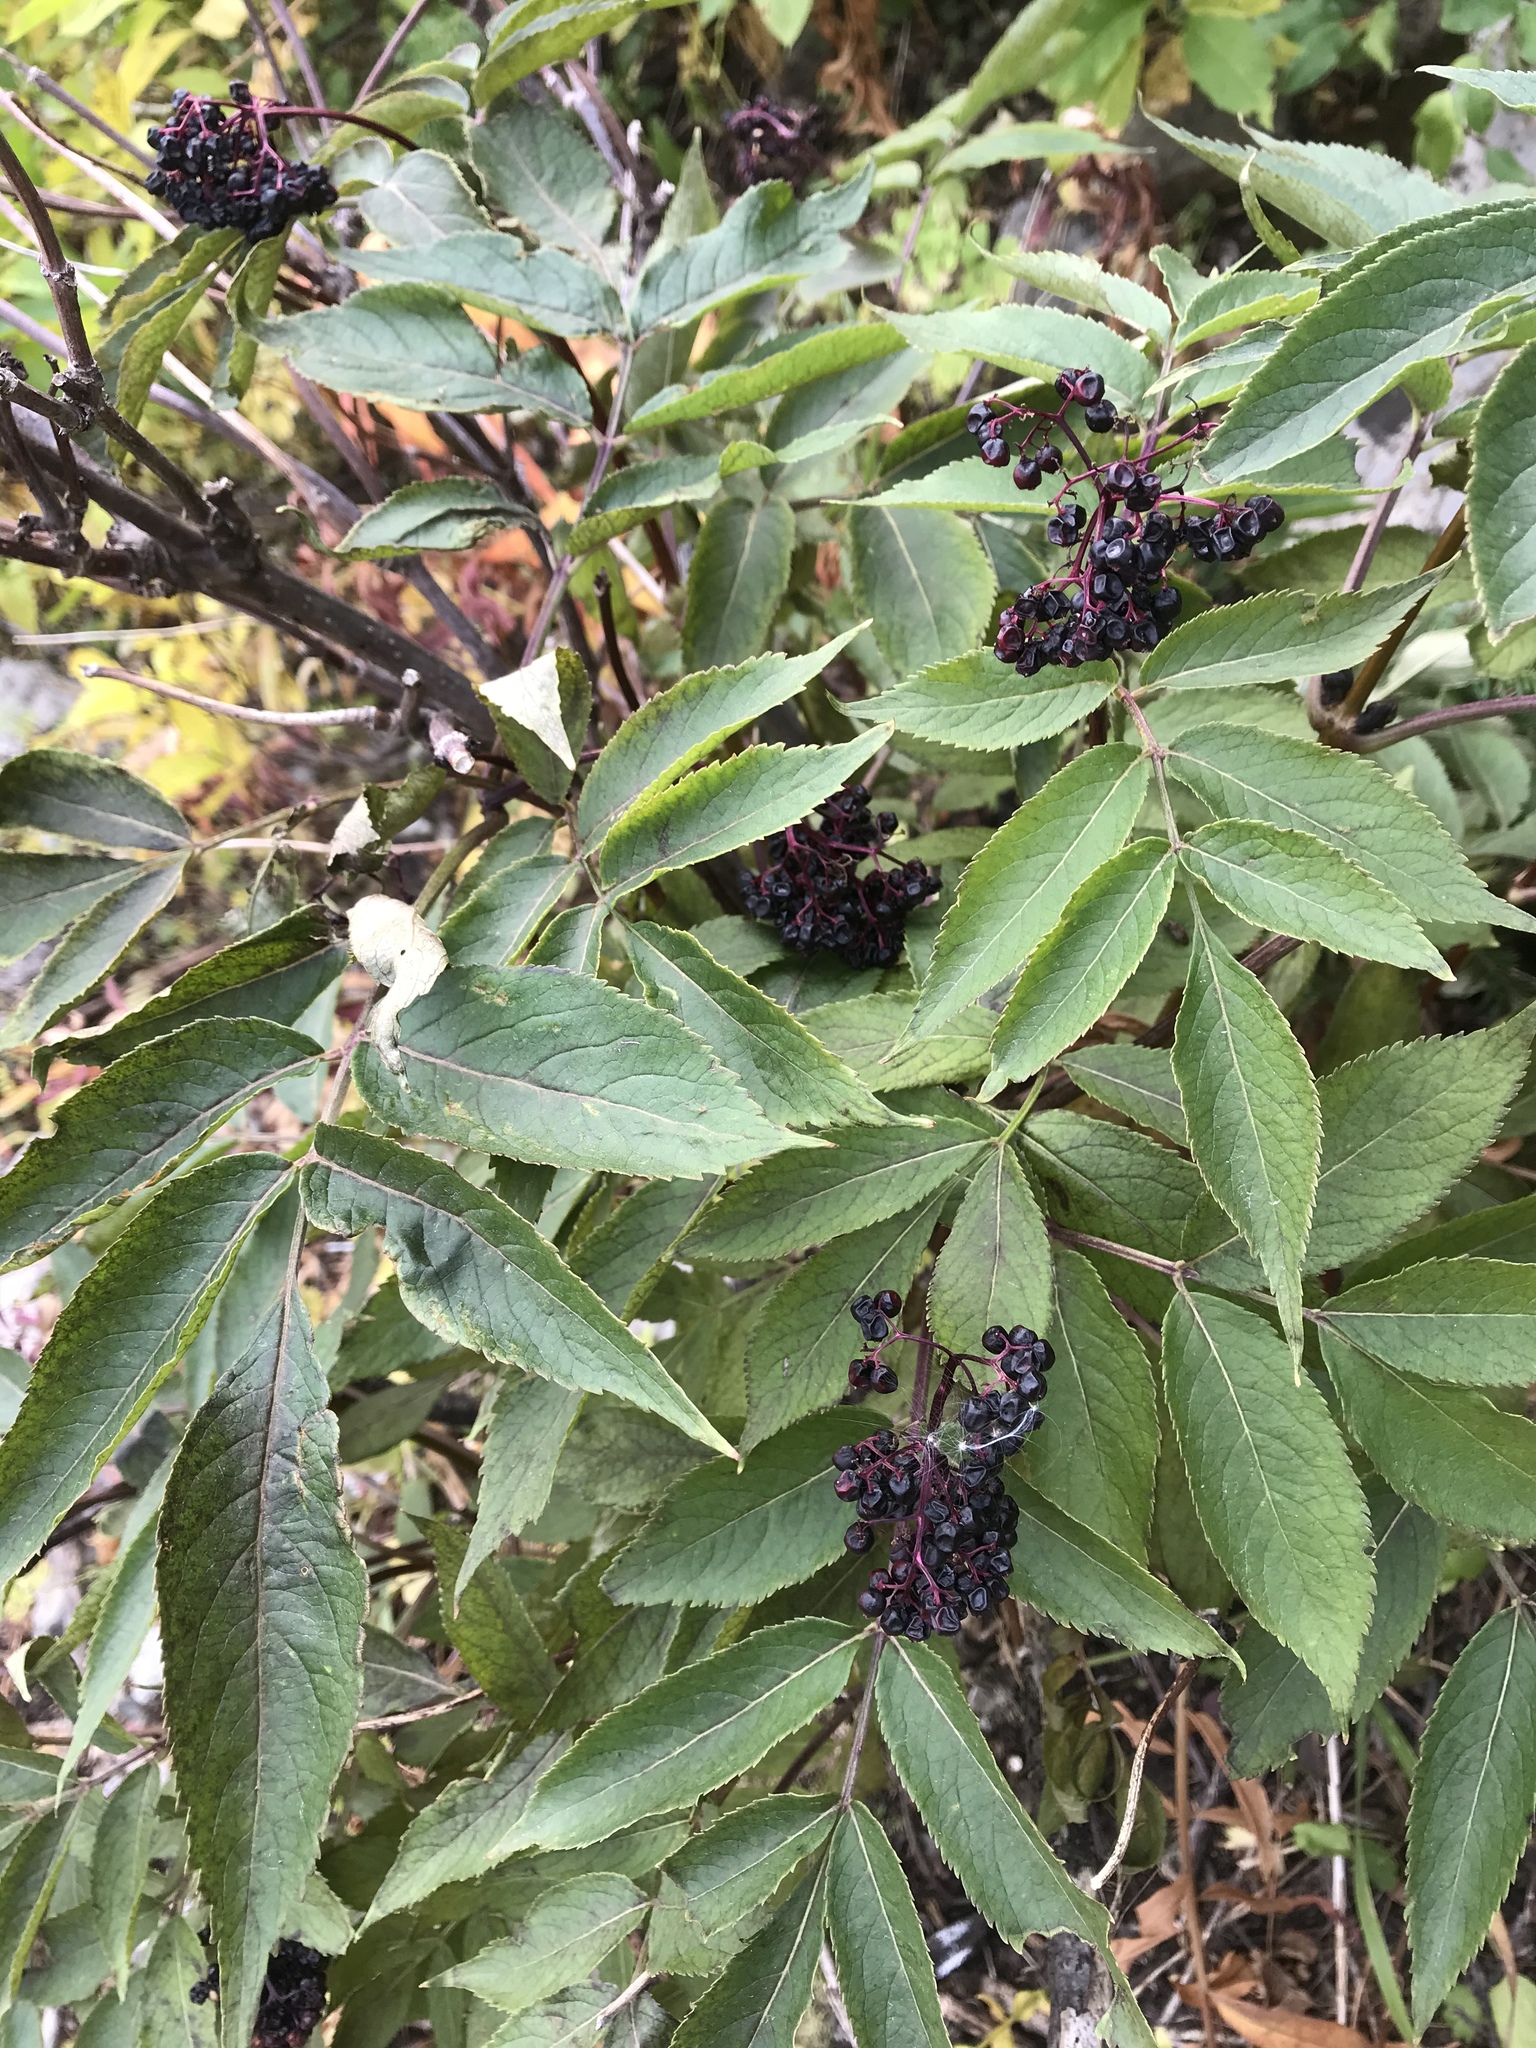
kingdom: Plantae
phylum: Tracheophyta
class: Magnoliopsida
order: Dipsacales
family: Viburnaceae
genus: Sambucus
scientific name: Sambucus racemosa
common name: Red-berried elder
